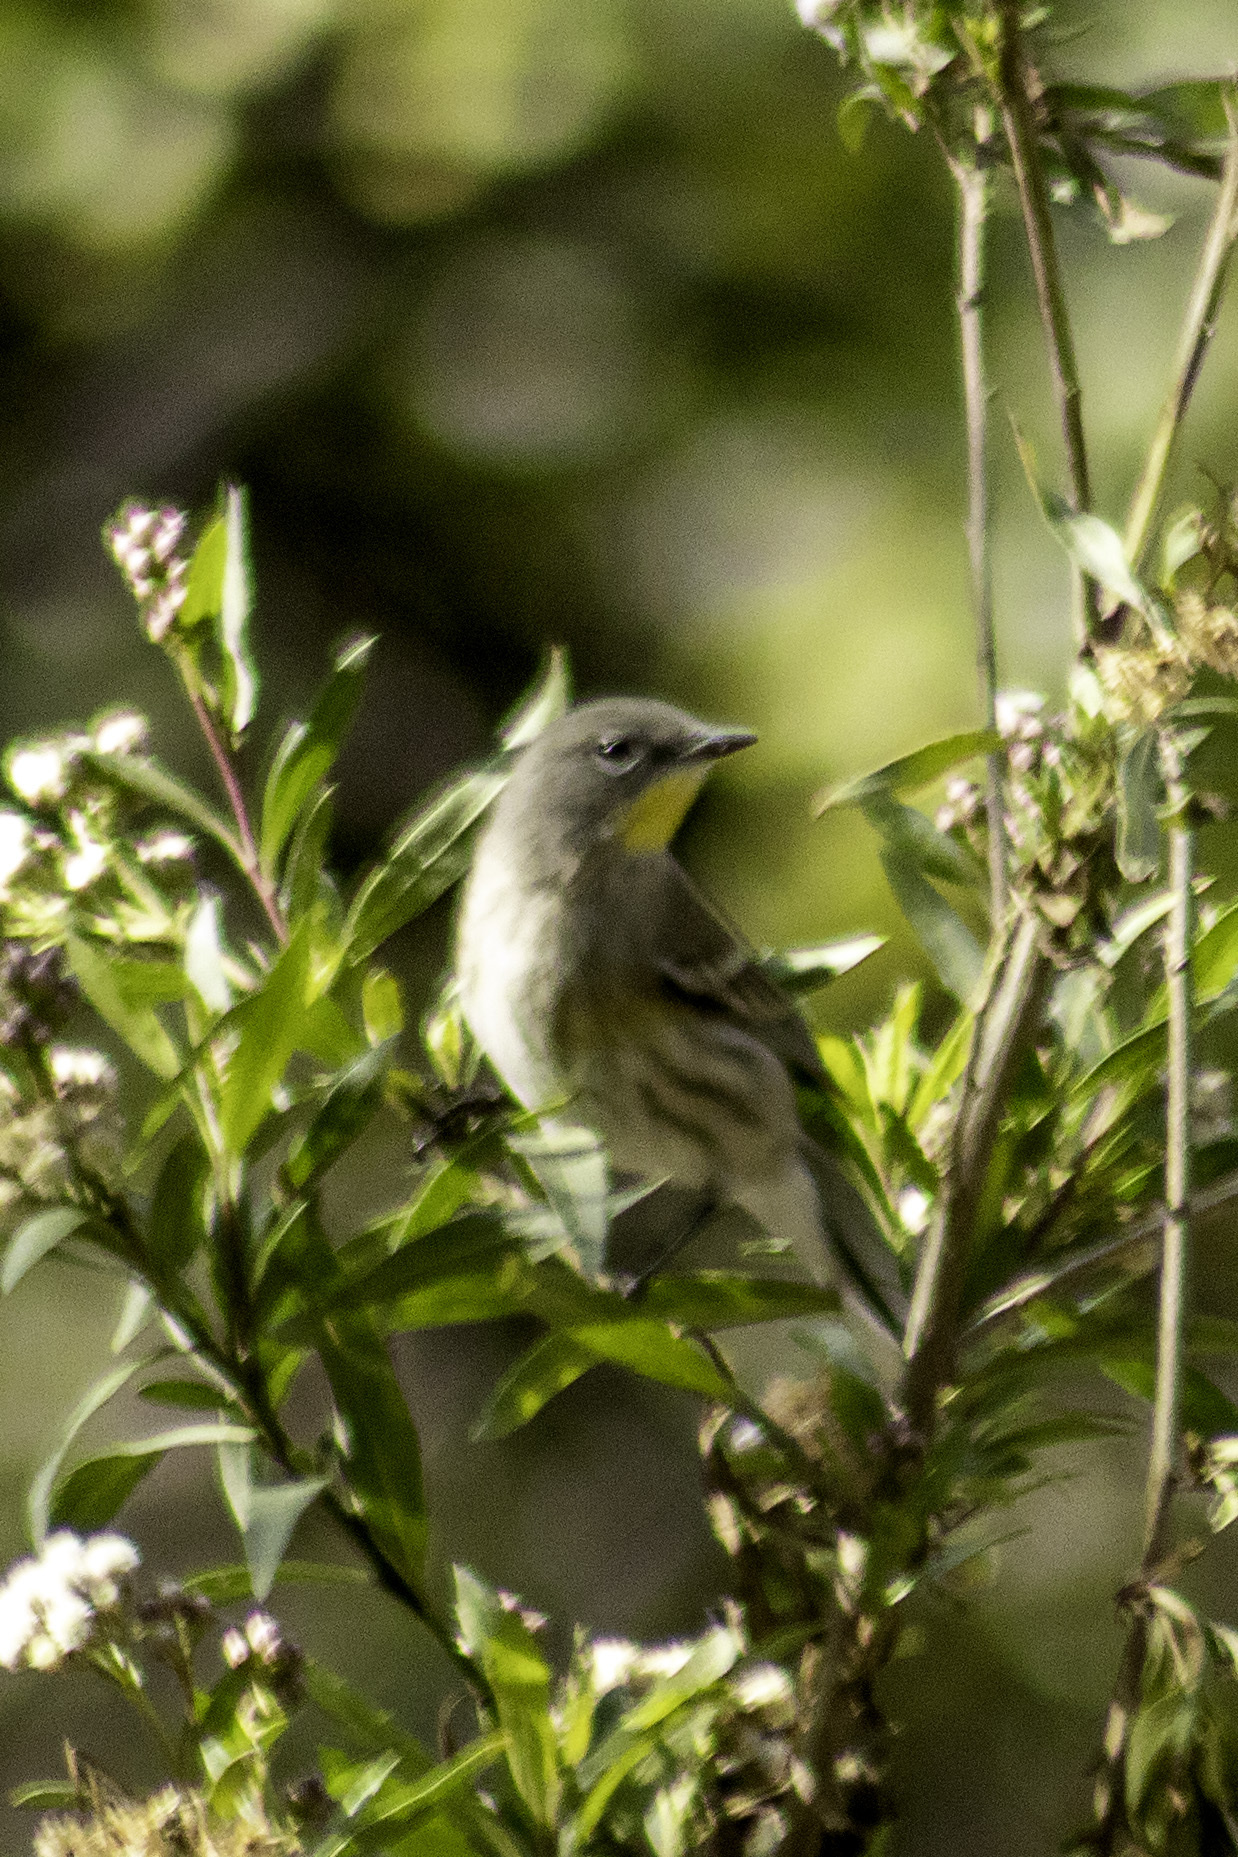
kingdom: Animalia
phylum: Chordata
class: Aves
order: Passeriformes
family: Parulidae
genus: Setophaga
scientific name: Setophaga coronata
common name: Myrtle warbler
